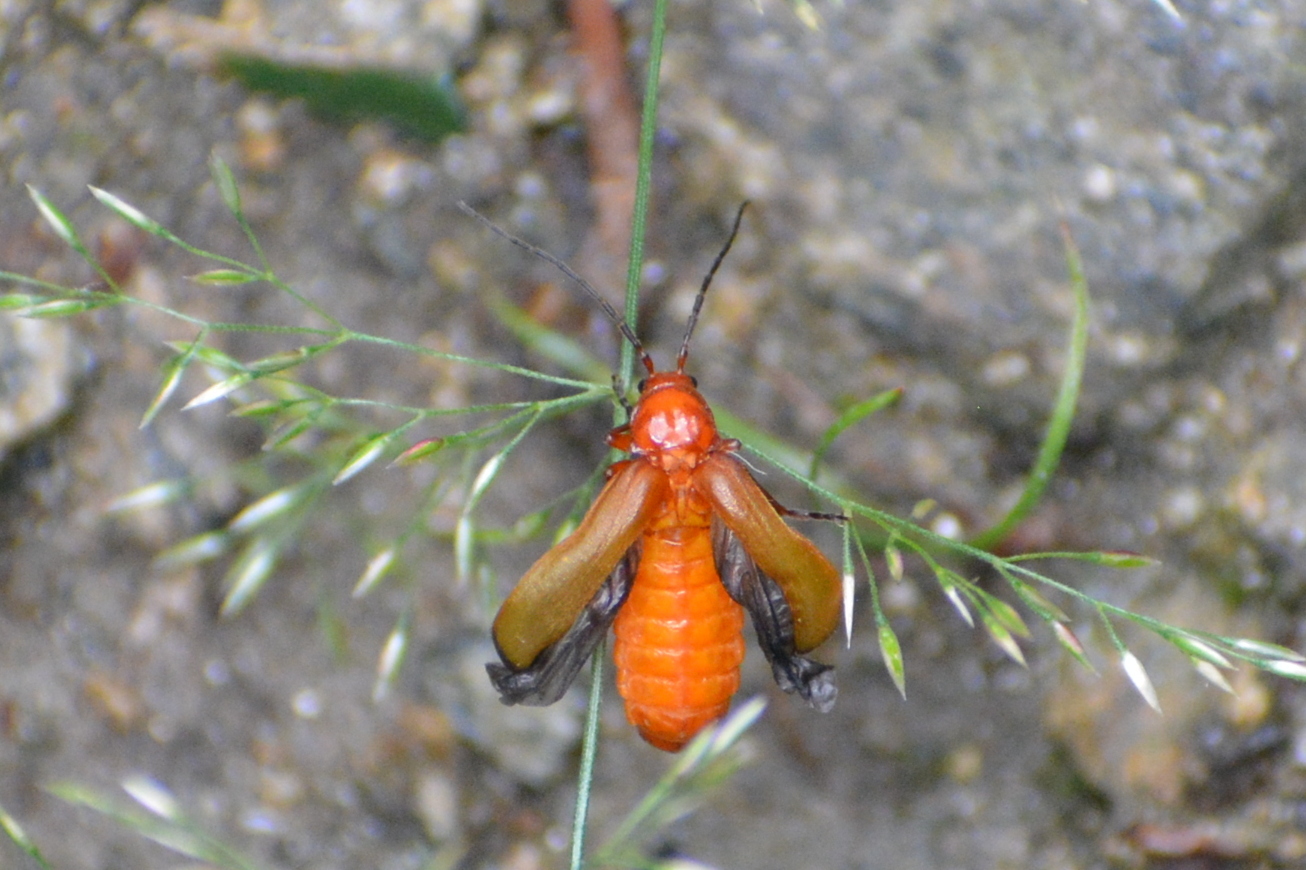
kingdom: Animalia
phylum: Arthropoda
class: Insecta
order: Coleoptera
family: Cantharidae
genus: Rhagonycha
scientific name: Rhagonycha fulva
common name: Common red soldier beetle
